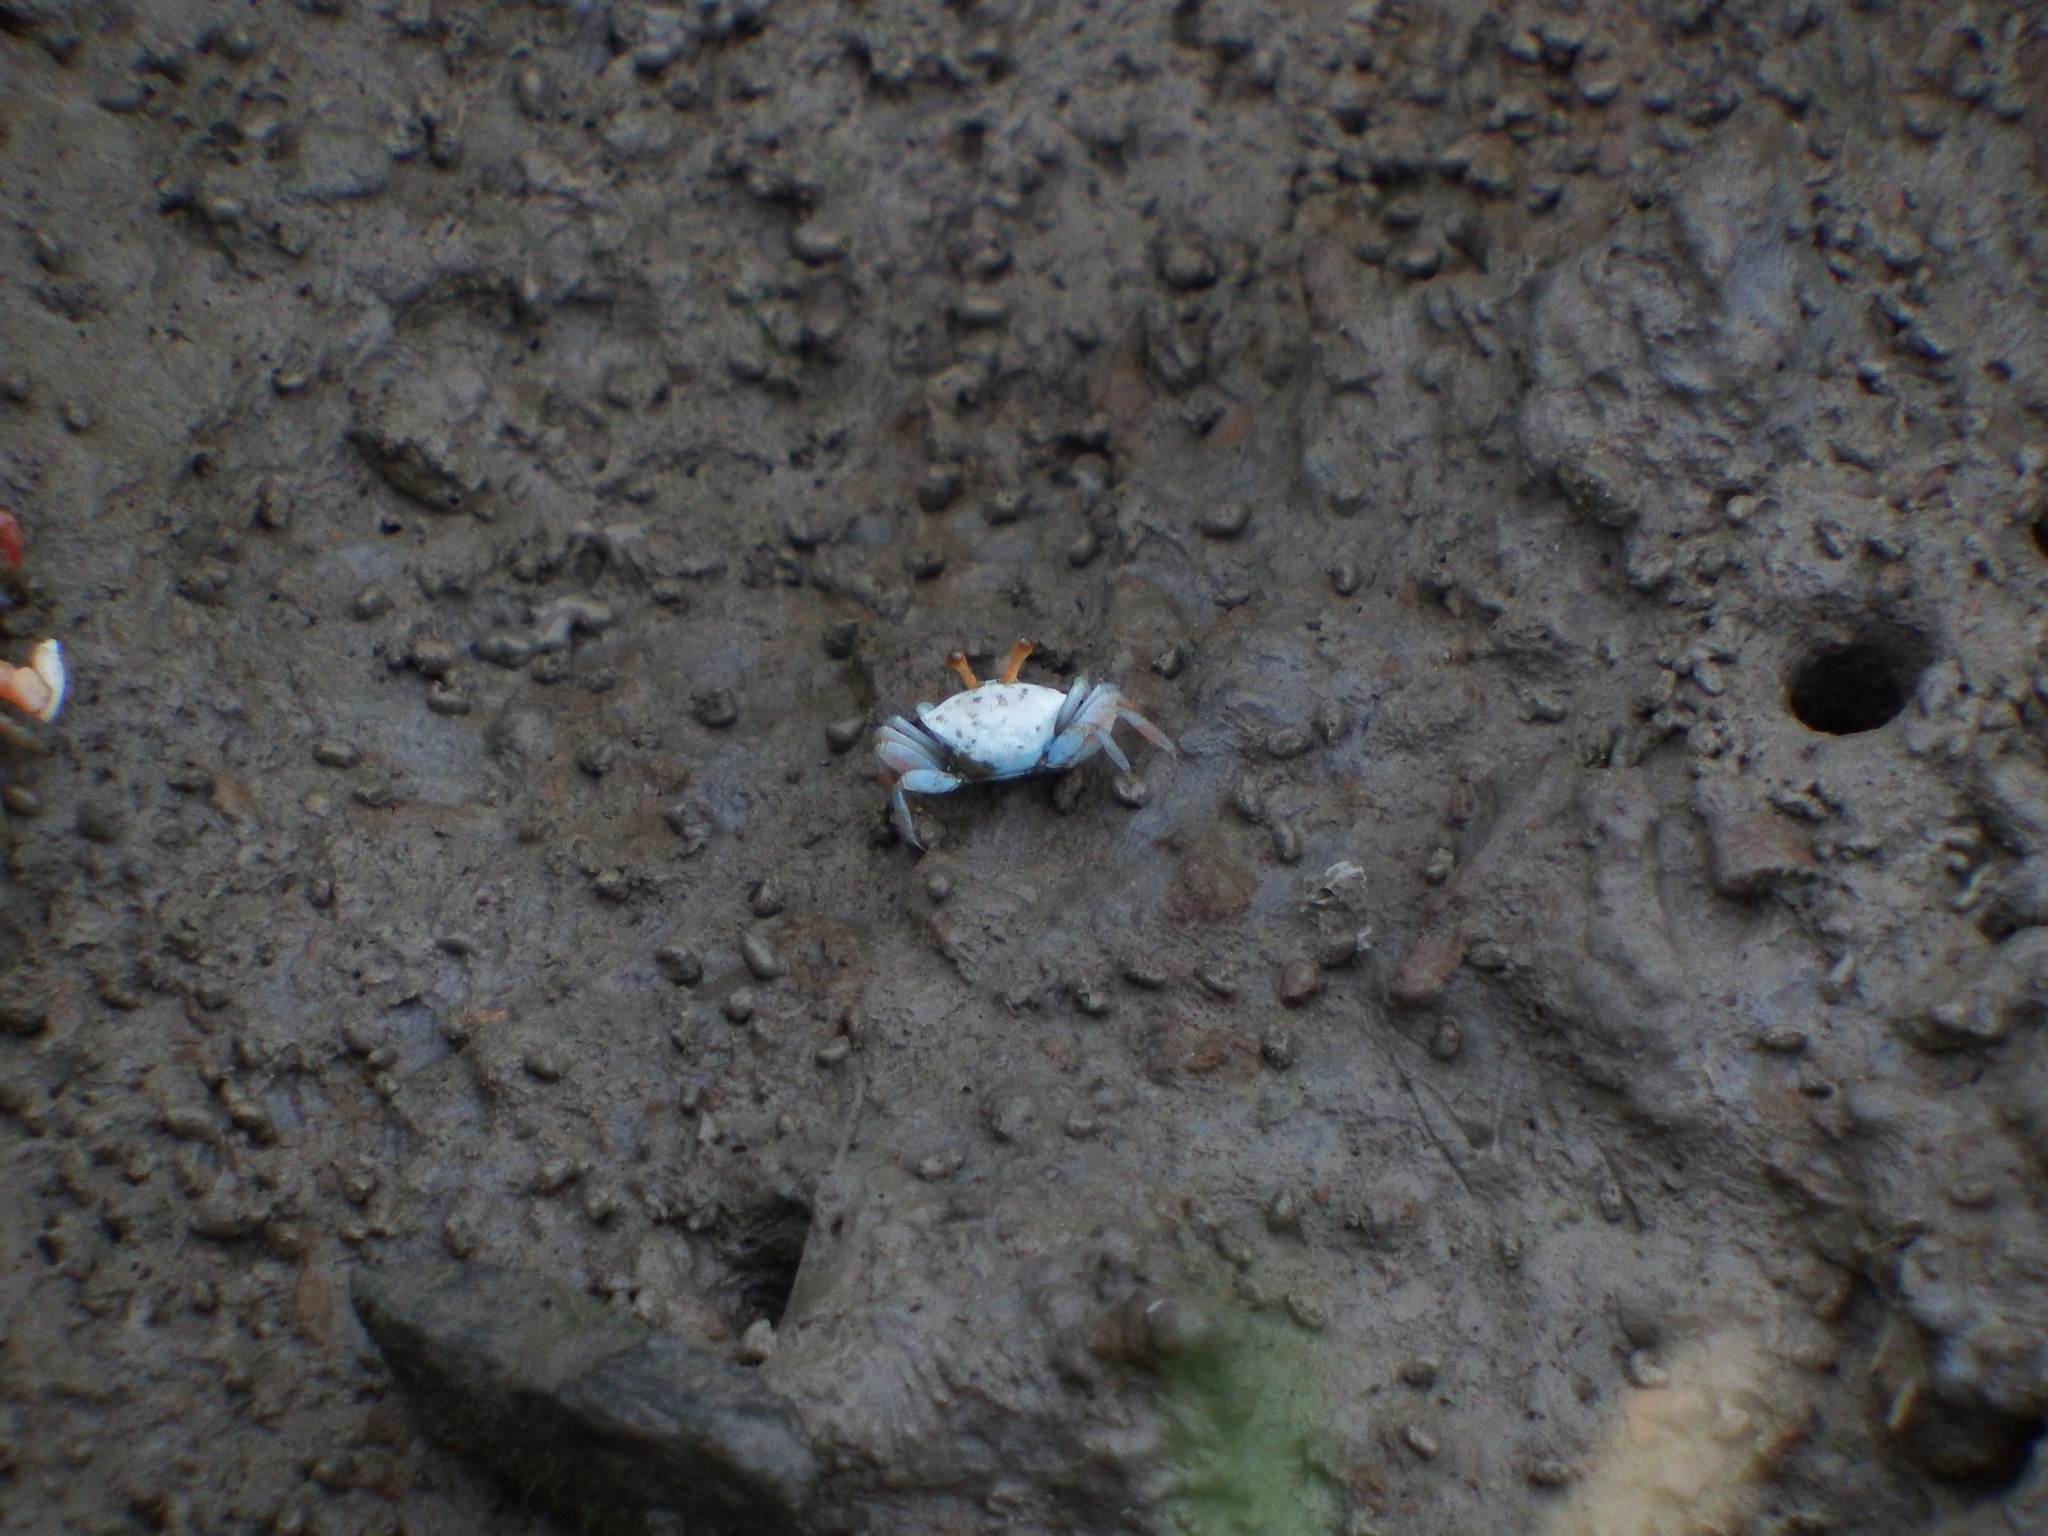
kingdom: Animalia
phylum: Arthropoda
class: Malacostraca
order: Decapoda
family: Ocypodidae
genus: Tubuca
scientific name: Tubuca arcuata
